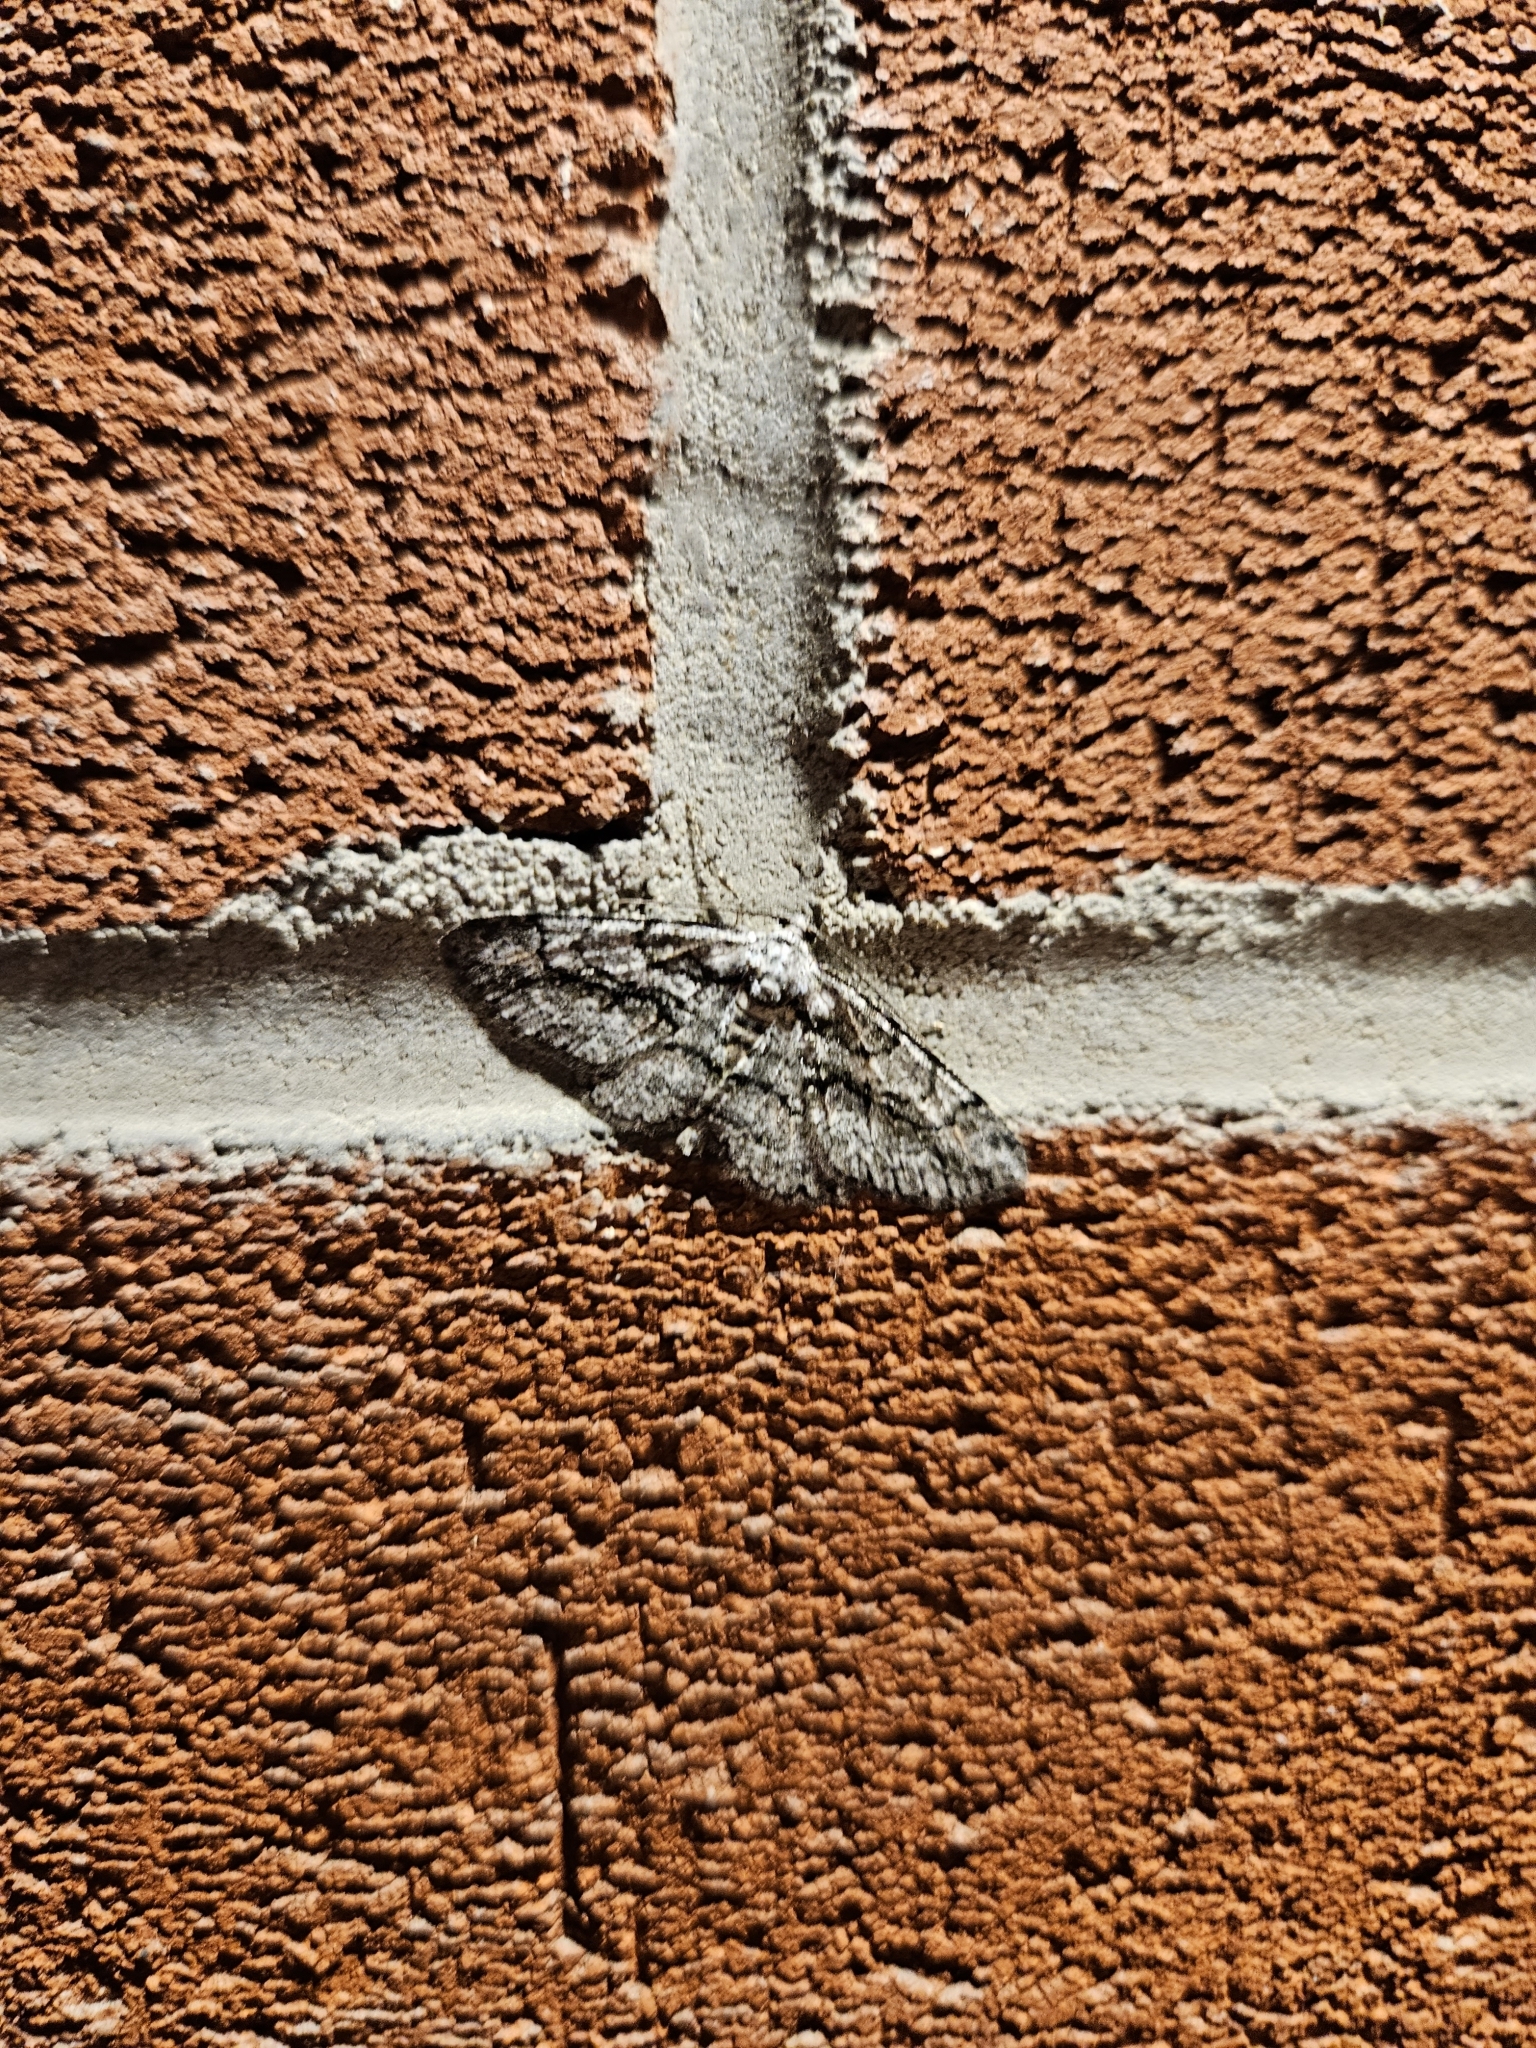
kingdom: Animalia
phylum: Arthropoda
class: Insecta
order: Lepidoptera
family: Geometridae
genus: Anavitrinella
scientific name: Anavitrinella pampinaria
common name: Common gray
